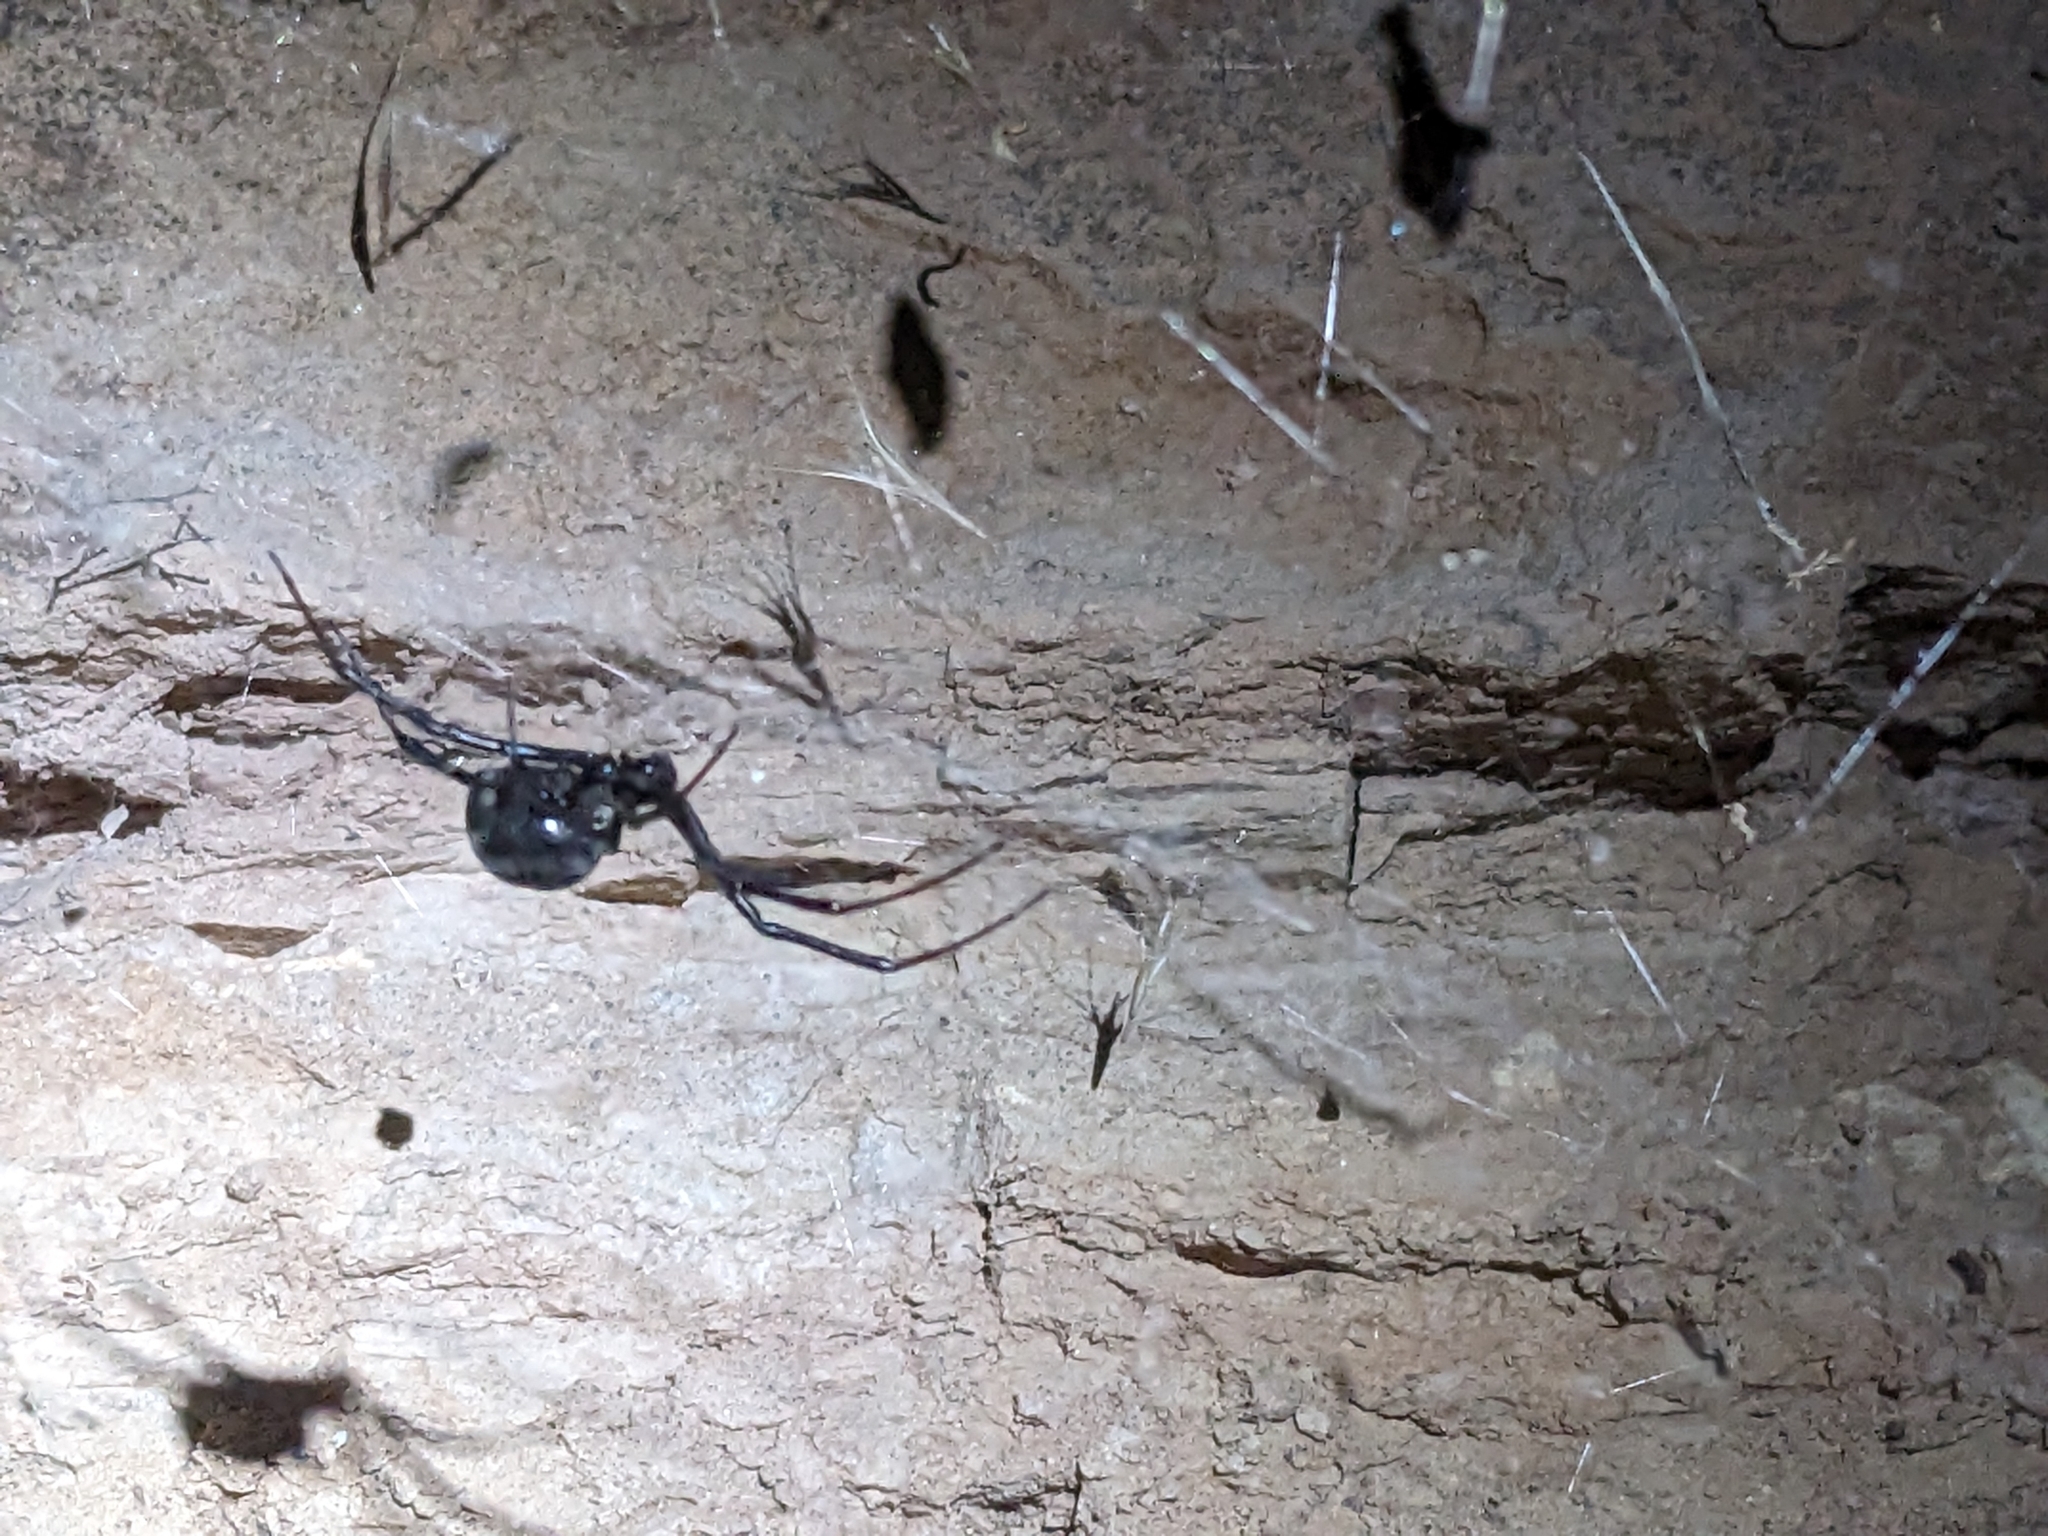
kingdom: Animalia
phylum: Arthropoda
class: Arachnida
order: Araneae
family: Theridiidae
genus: Latrodectus
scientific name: Latrodectus hesperus
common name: Western black widow
